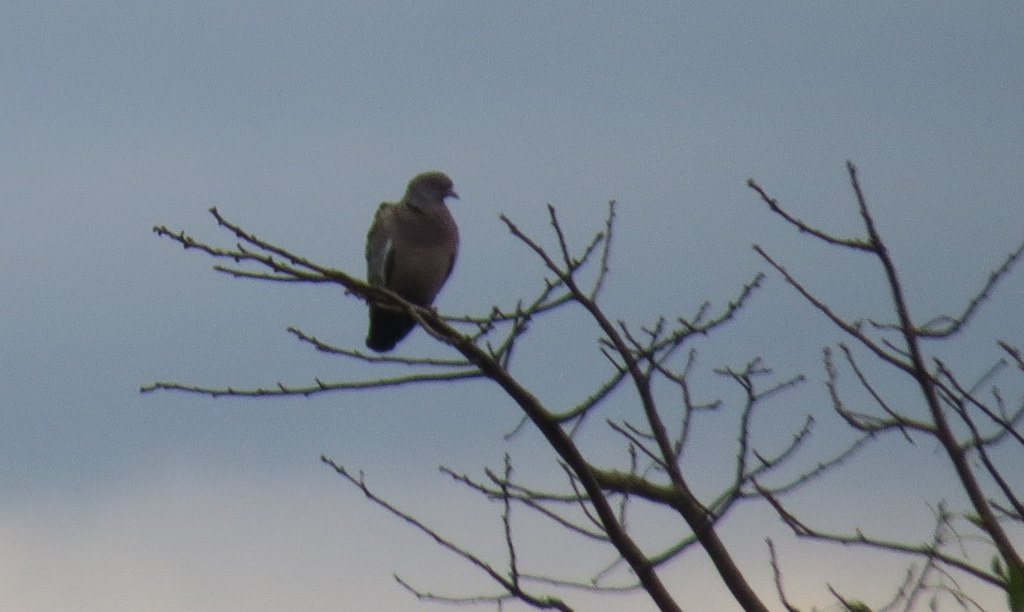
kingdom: Animalia
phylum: Chordata
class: Aves
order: Columbiformes
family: Columbidae
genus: Patagioenas
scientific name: Patagioenas picazuro
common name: Picazuro pigeon
